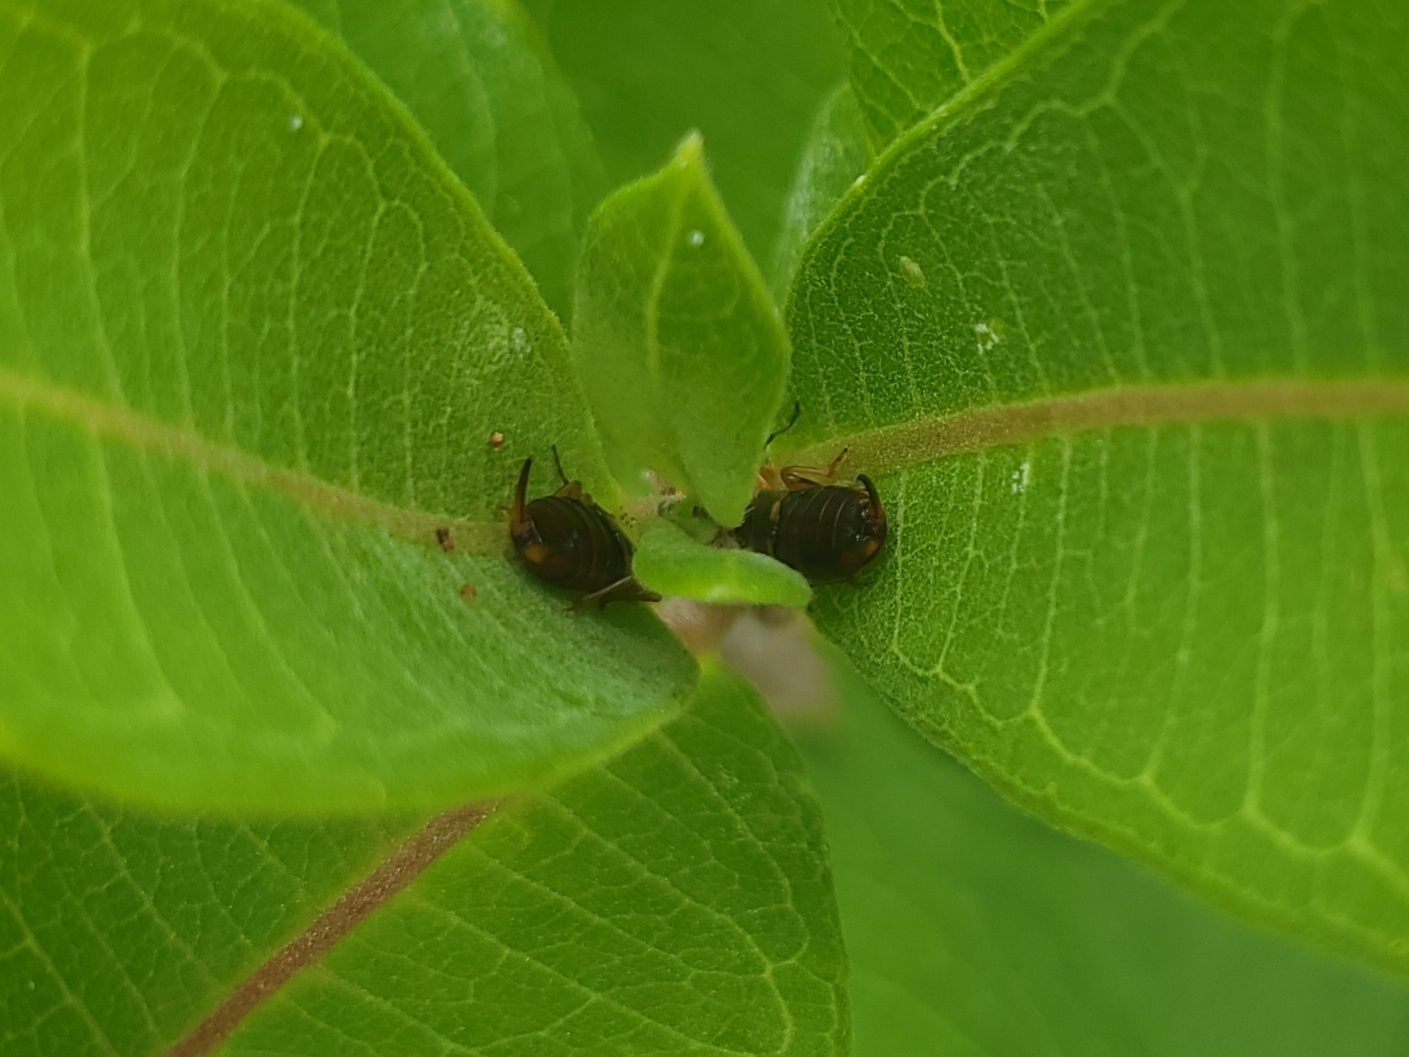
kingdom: Animalia
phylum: Arthropoda
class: Insecta
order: Dermaptera
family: Forficulidae
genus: Forficula
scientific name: Forficula
